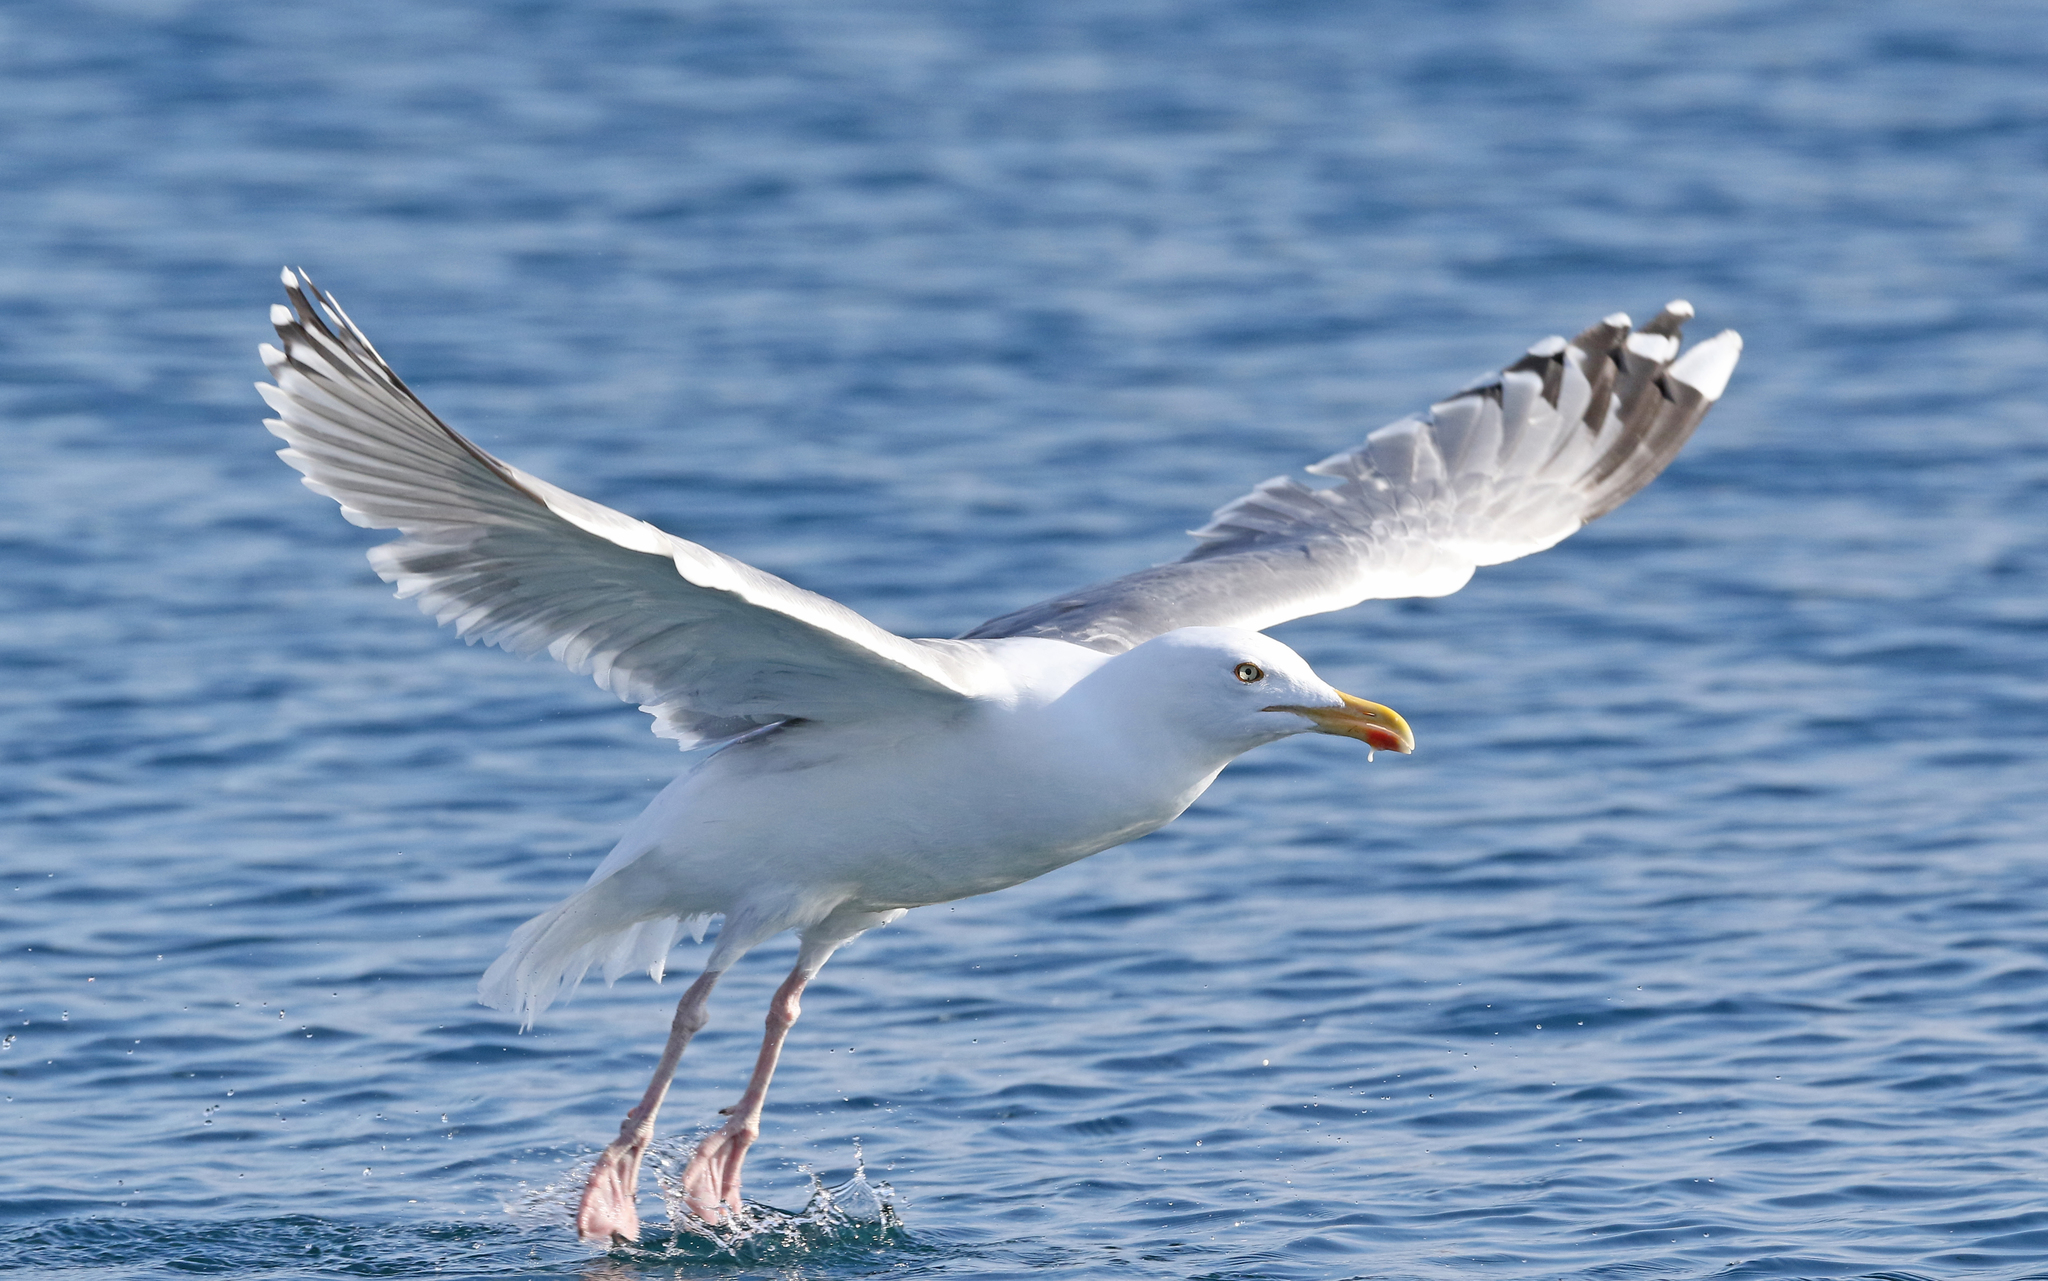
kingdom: Animalia
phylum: Chordata
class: Aves
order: Charadriiformes
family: Laridae
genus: Larus
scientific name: Larus argentatus
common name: Herring gull
